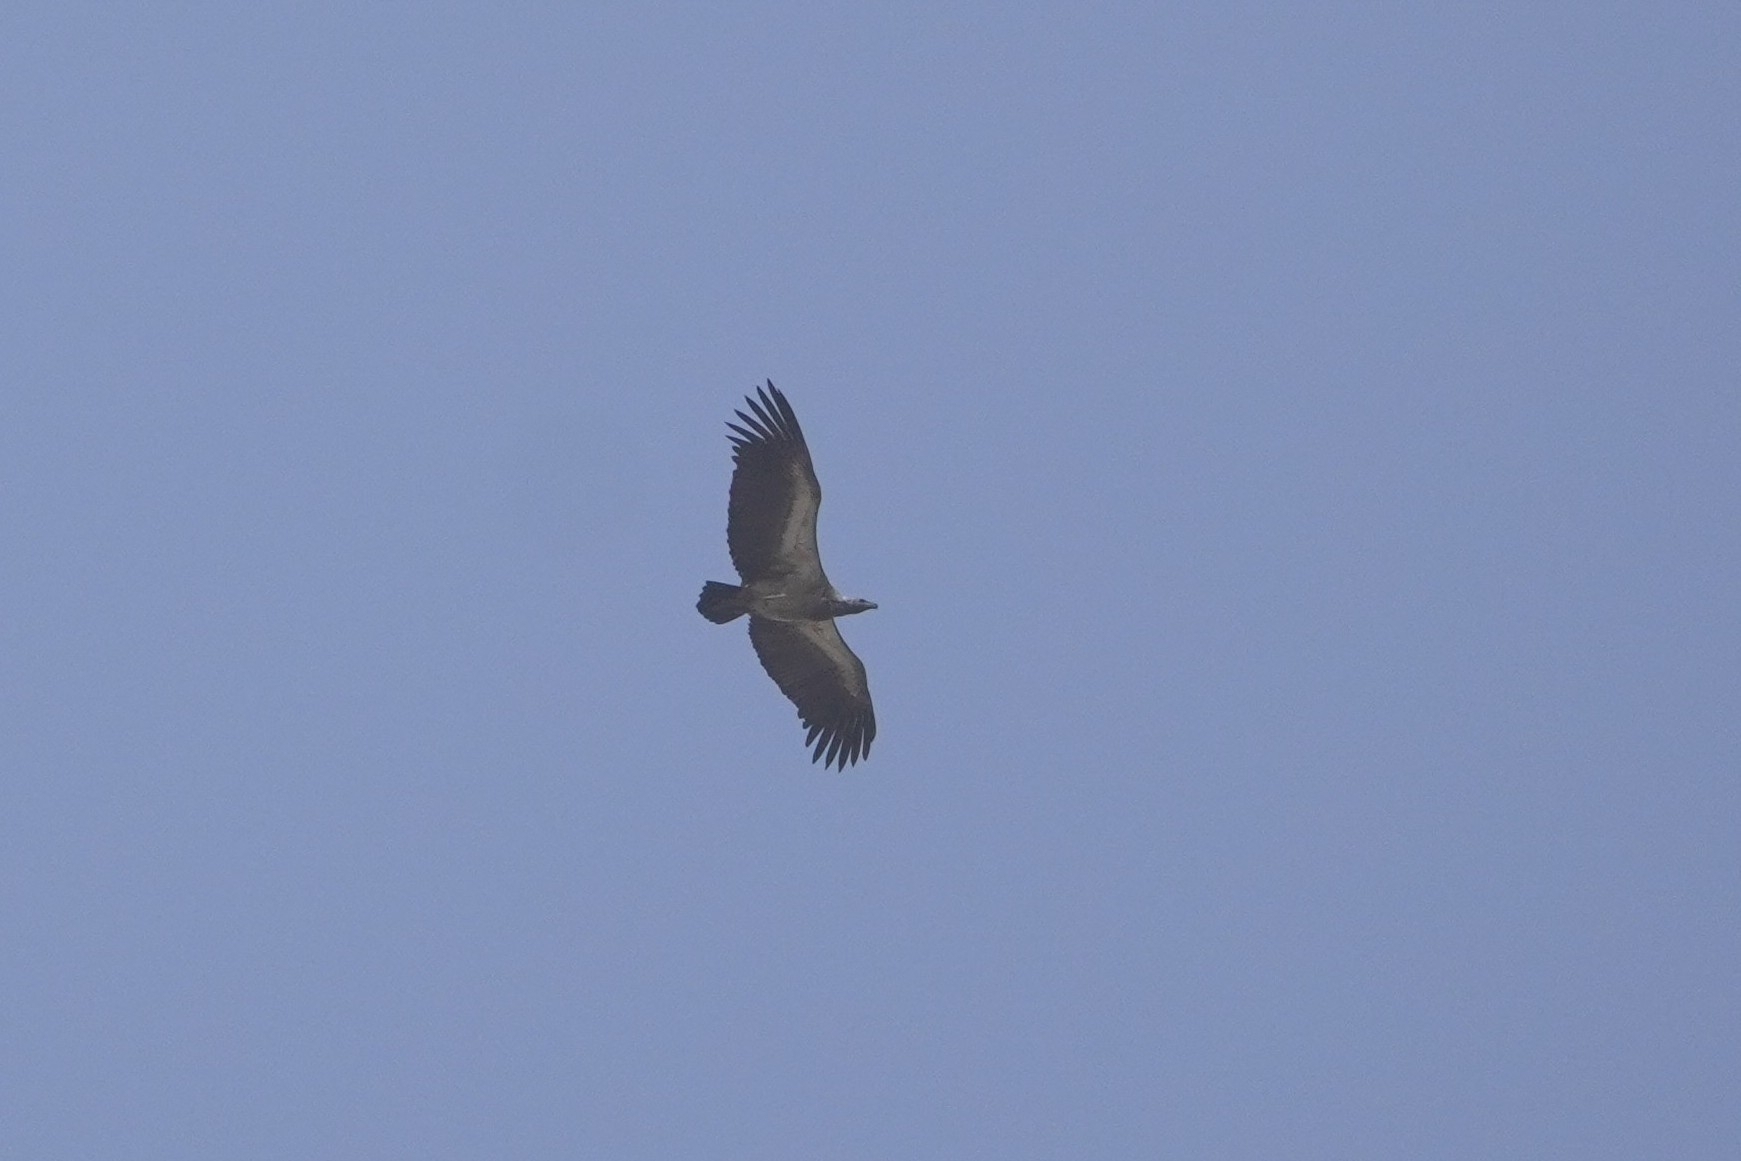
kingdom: Animalia
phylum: Chordata
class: Aves
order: Accipitriformes
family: Accipitridae
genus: Gyps
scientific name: Gyps africanus
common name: White-backed vulture
